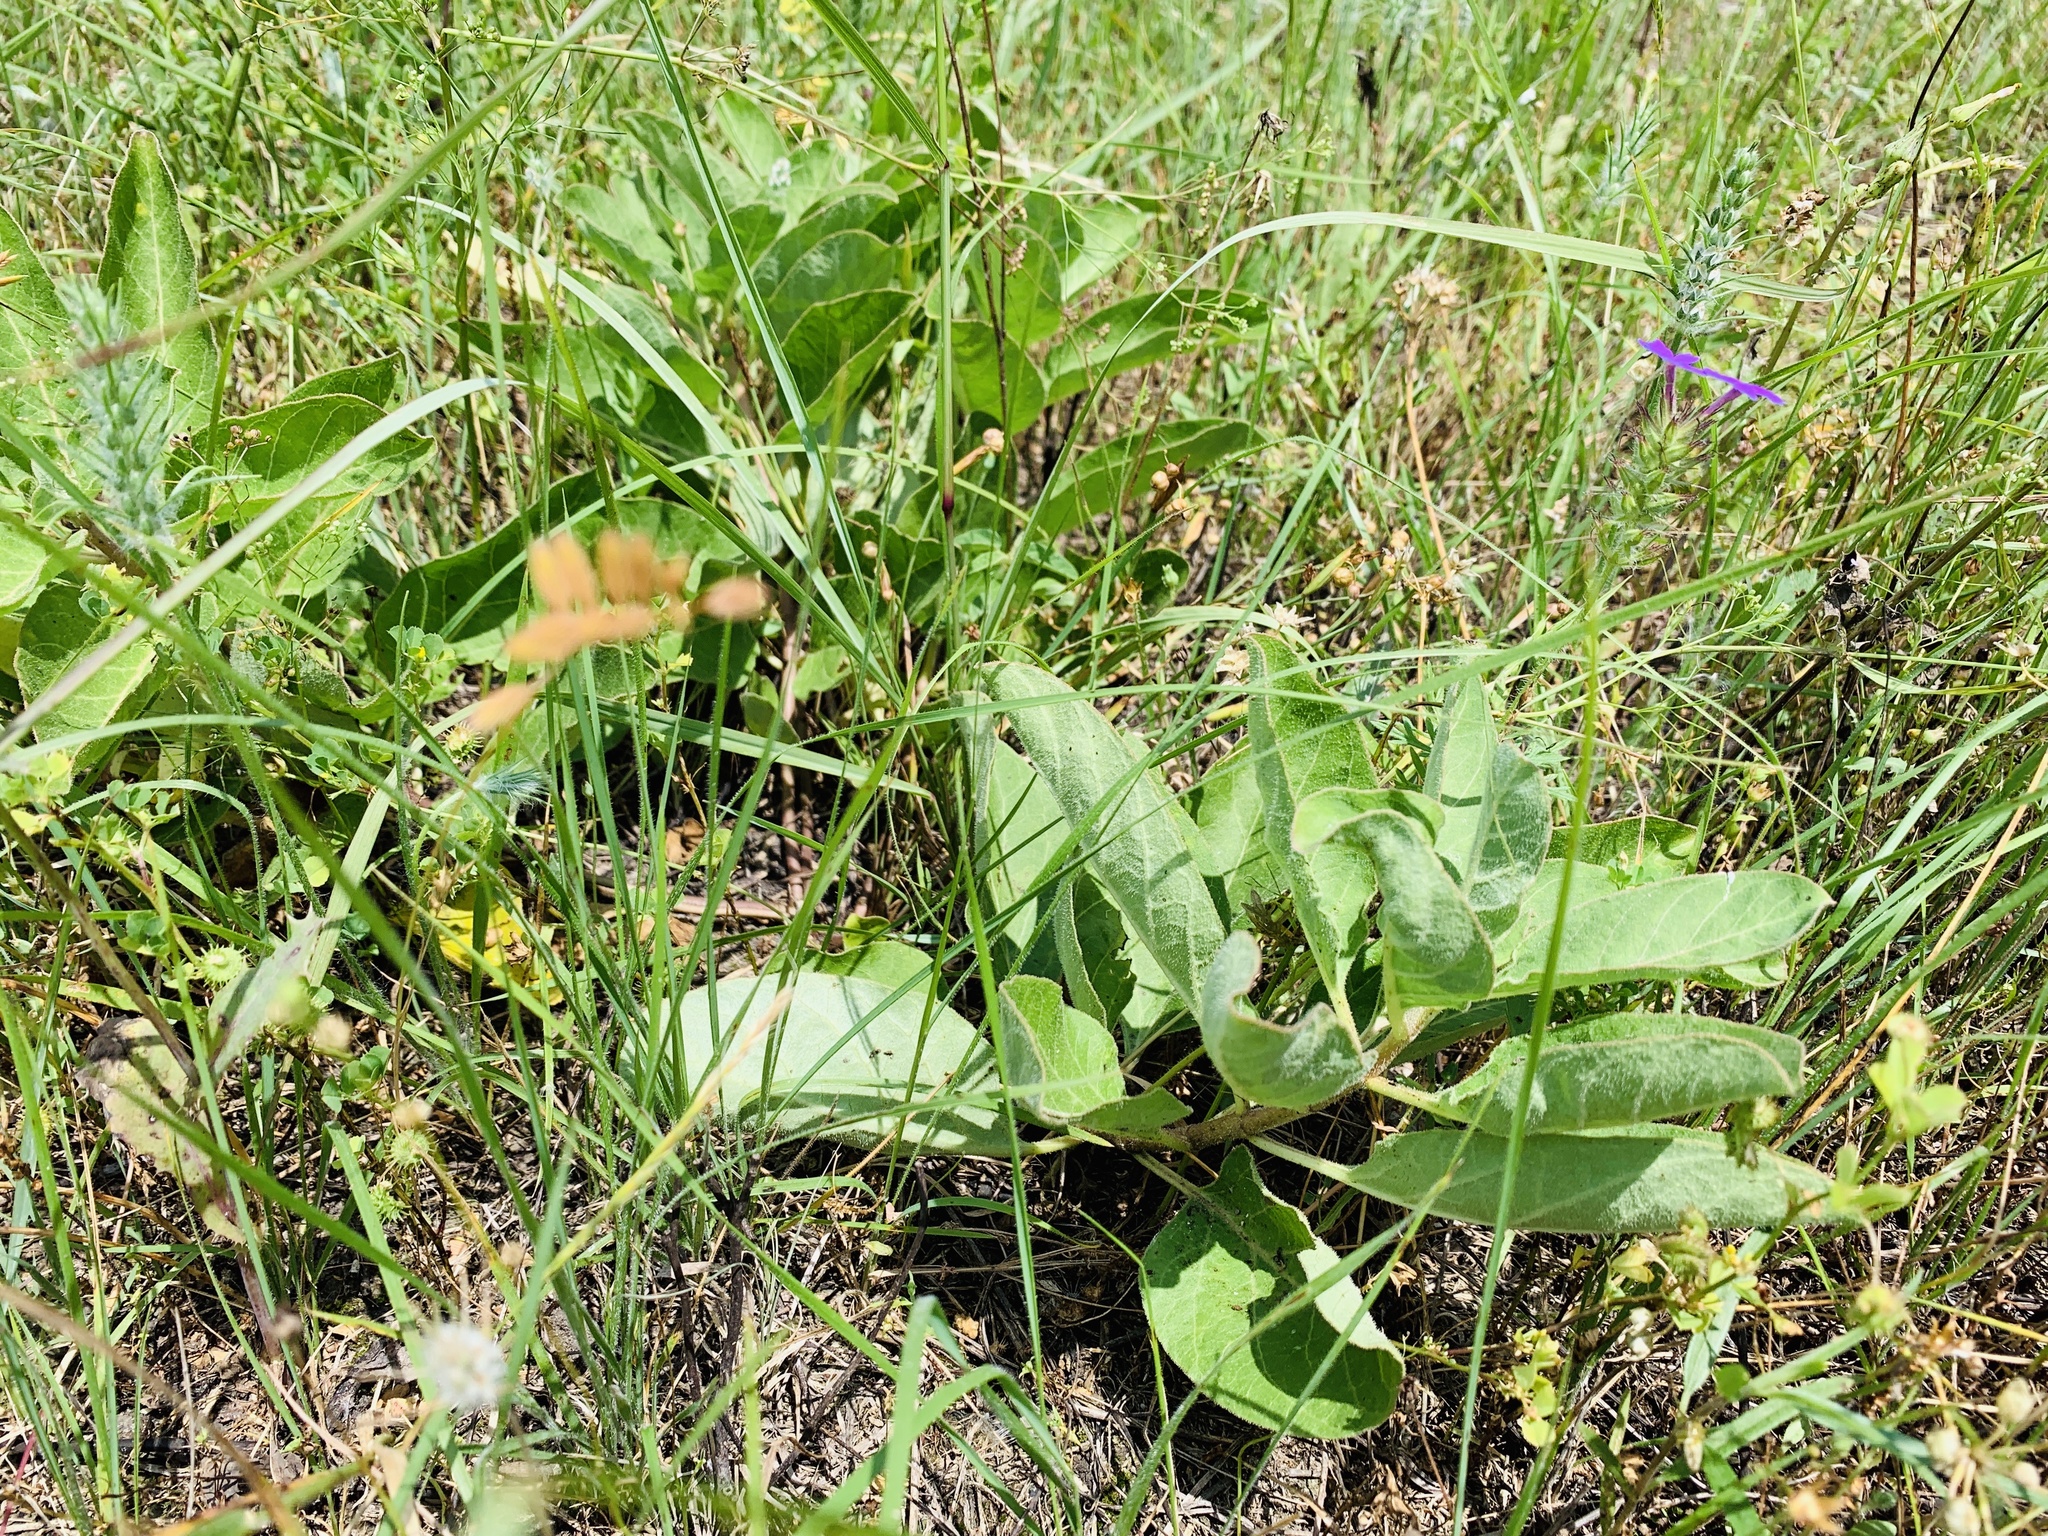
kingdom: Plantae
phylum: Tracheophyta
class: Magnoliopsida
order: Gentianales
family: Apocynaceae
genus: Asclepias
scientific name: Asclepias oenotheroides
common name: Zizotes milkweed
